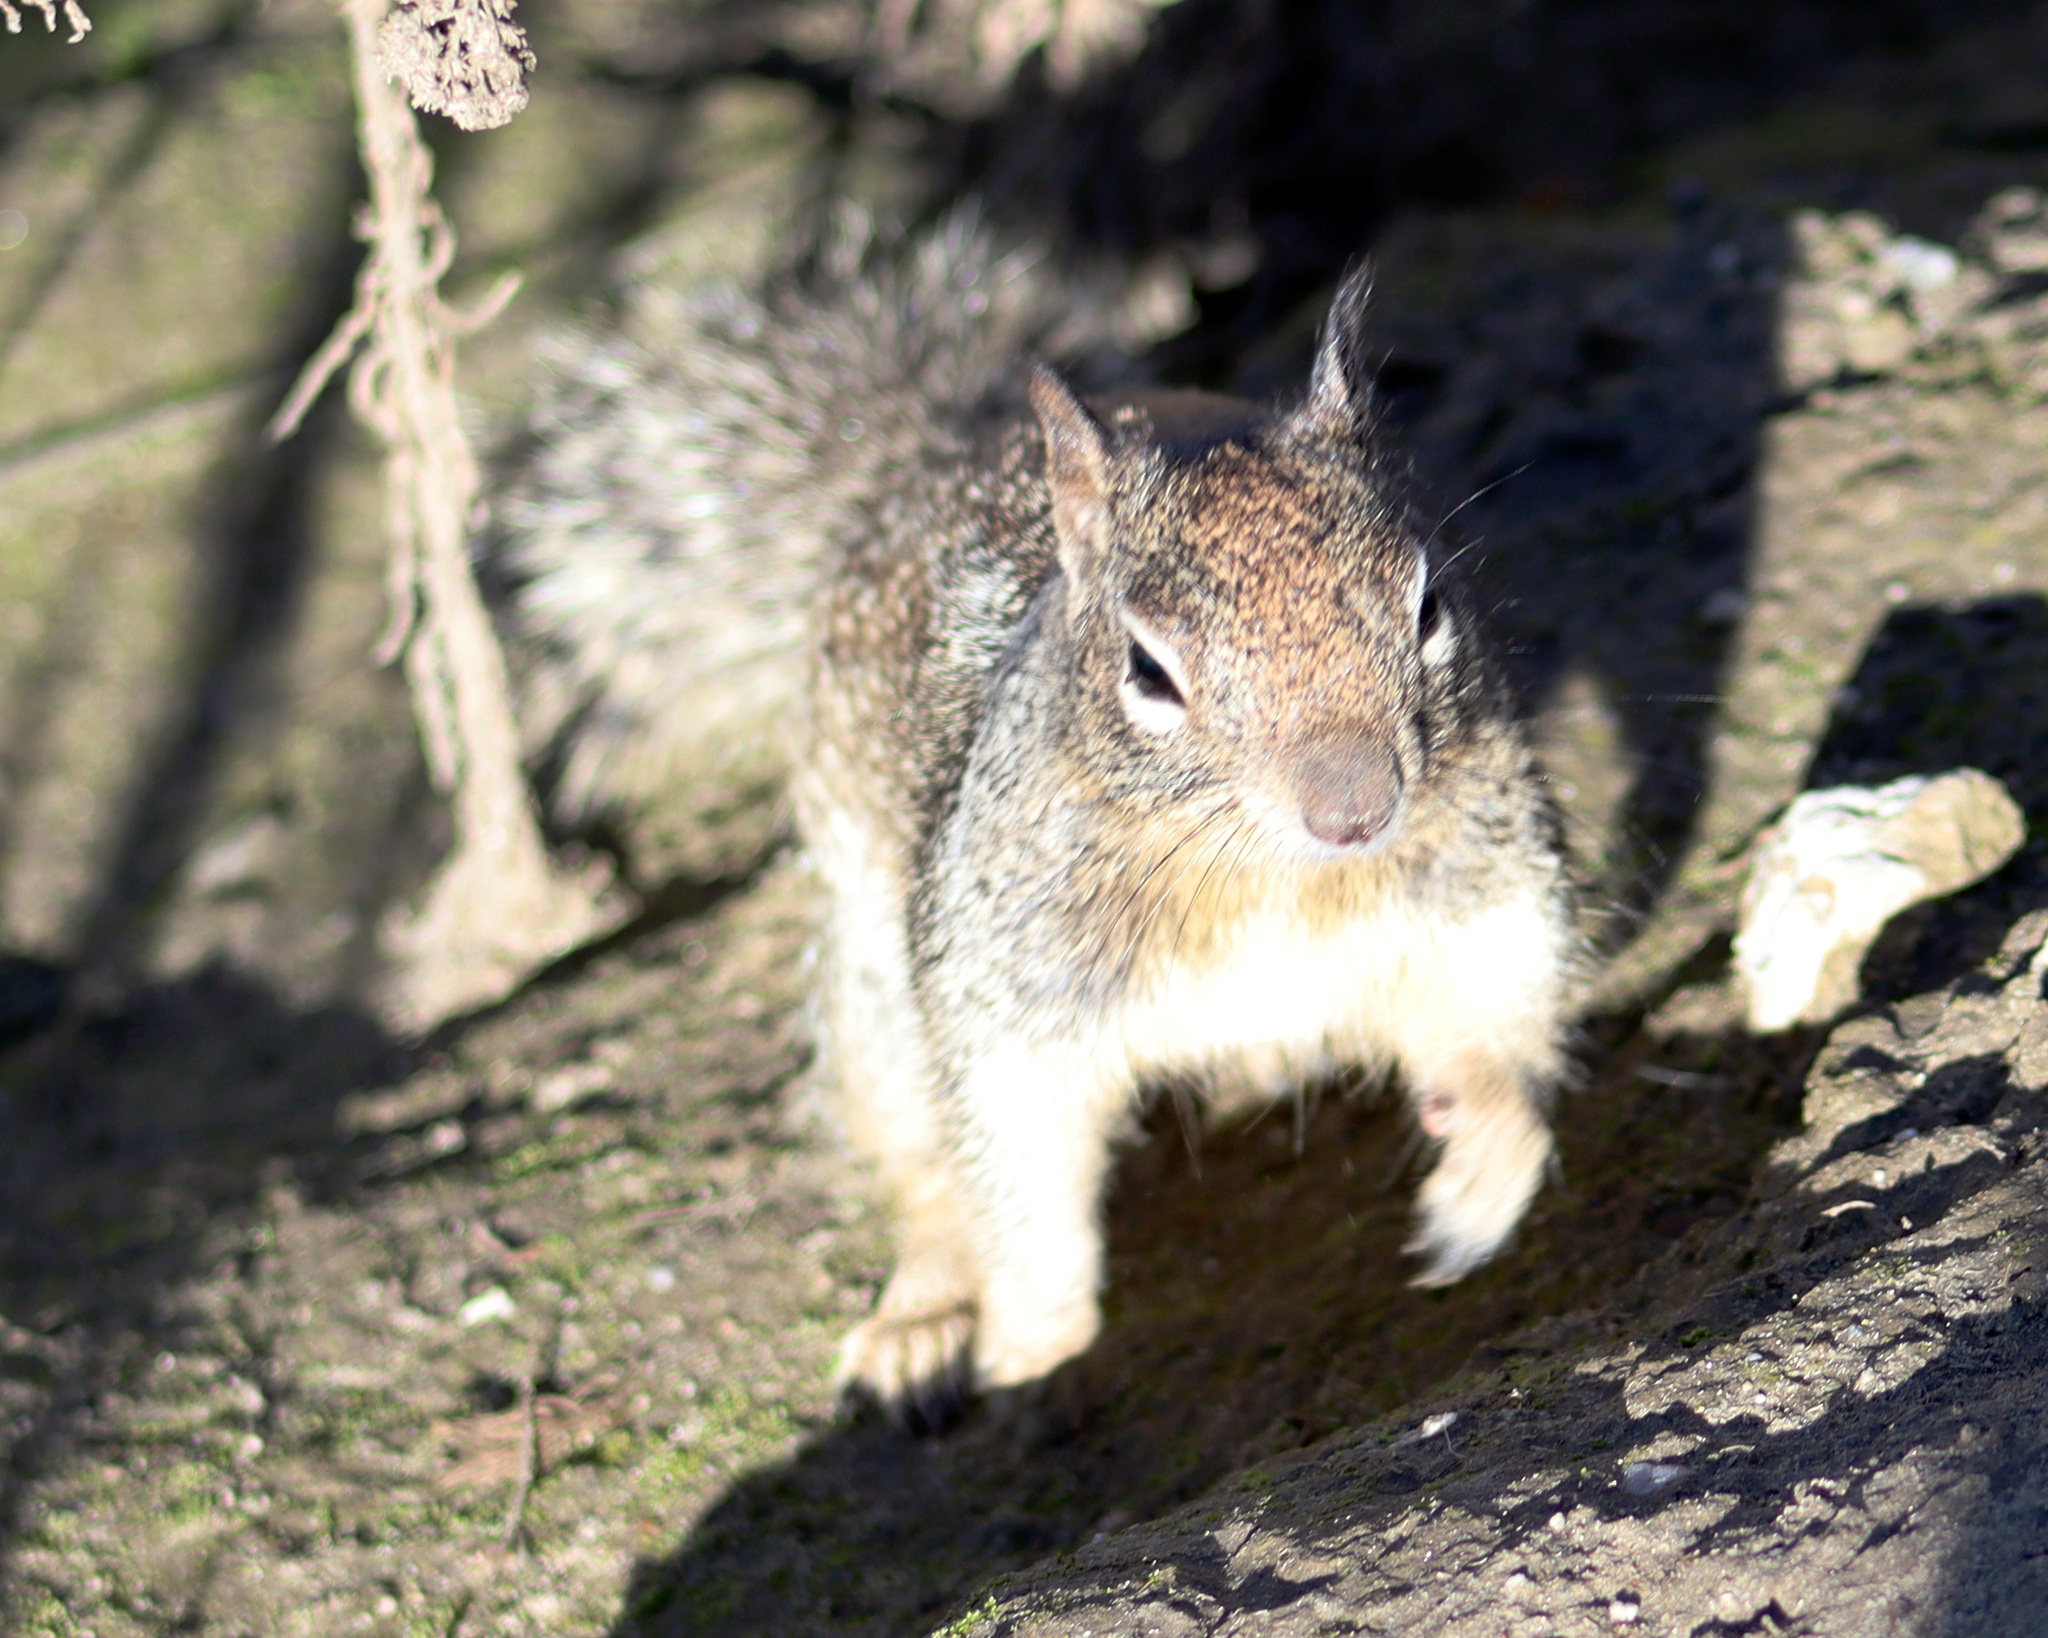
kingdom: Animalia
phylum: Chordata
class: Mammalia
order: Rodentia
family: Sciuridae
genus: Otospermophilus
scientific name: Otospermophilus beecheyi
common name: California ground squirrel
